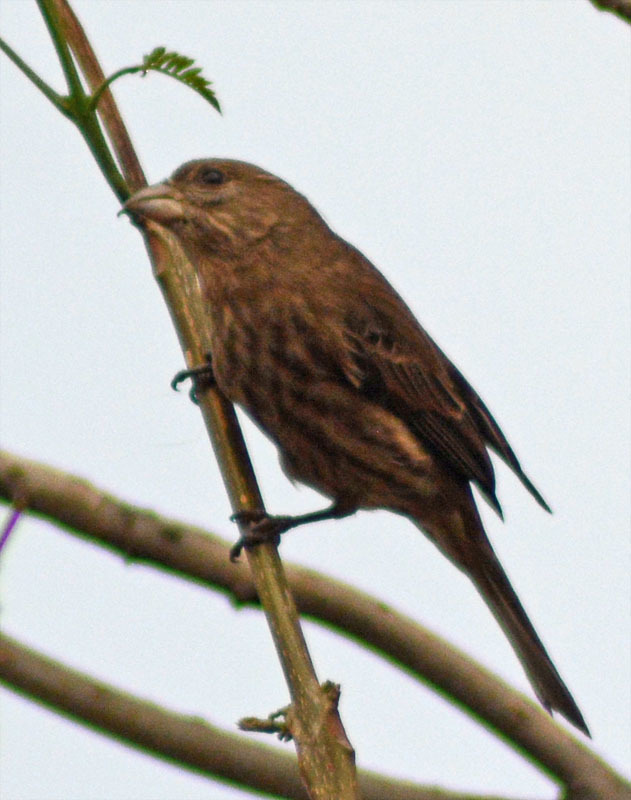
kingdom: Animalia
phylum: Chordata
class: Aves
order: Passeriformes
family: Fringillidae
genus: Haemorhous
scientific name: Haemorhous mexicanus
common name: House finch
